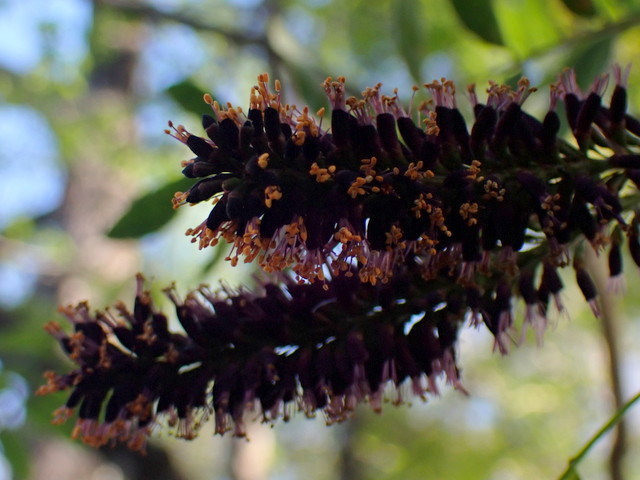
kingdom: Plantae
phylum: Tracheophyta
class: Magnoliopsida
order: Fabales
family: Fabaceae
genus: Amorpha
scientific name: Amorpha fruticosa
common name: False indigo
